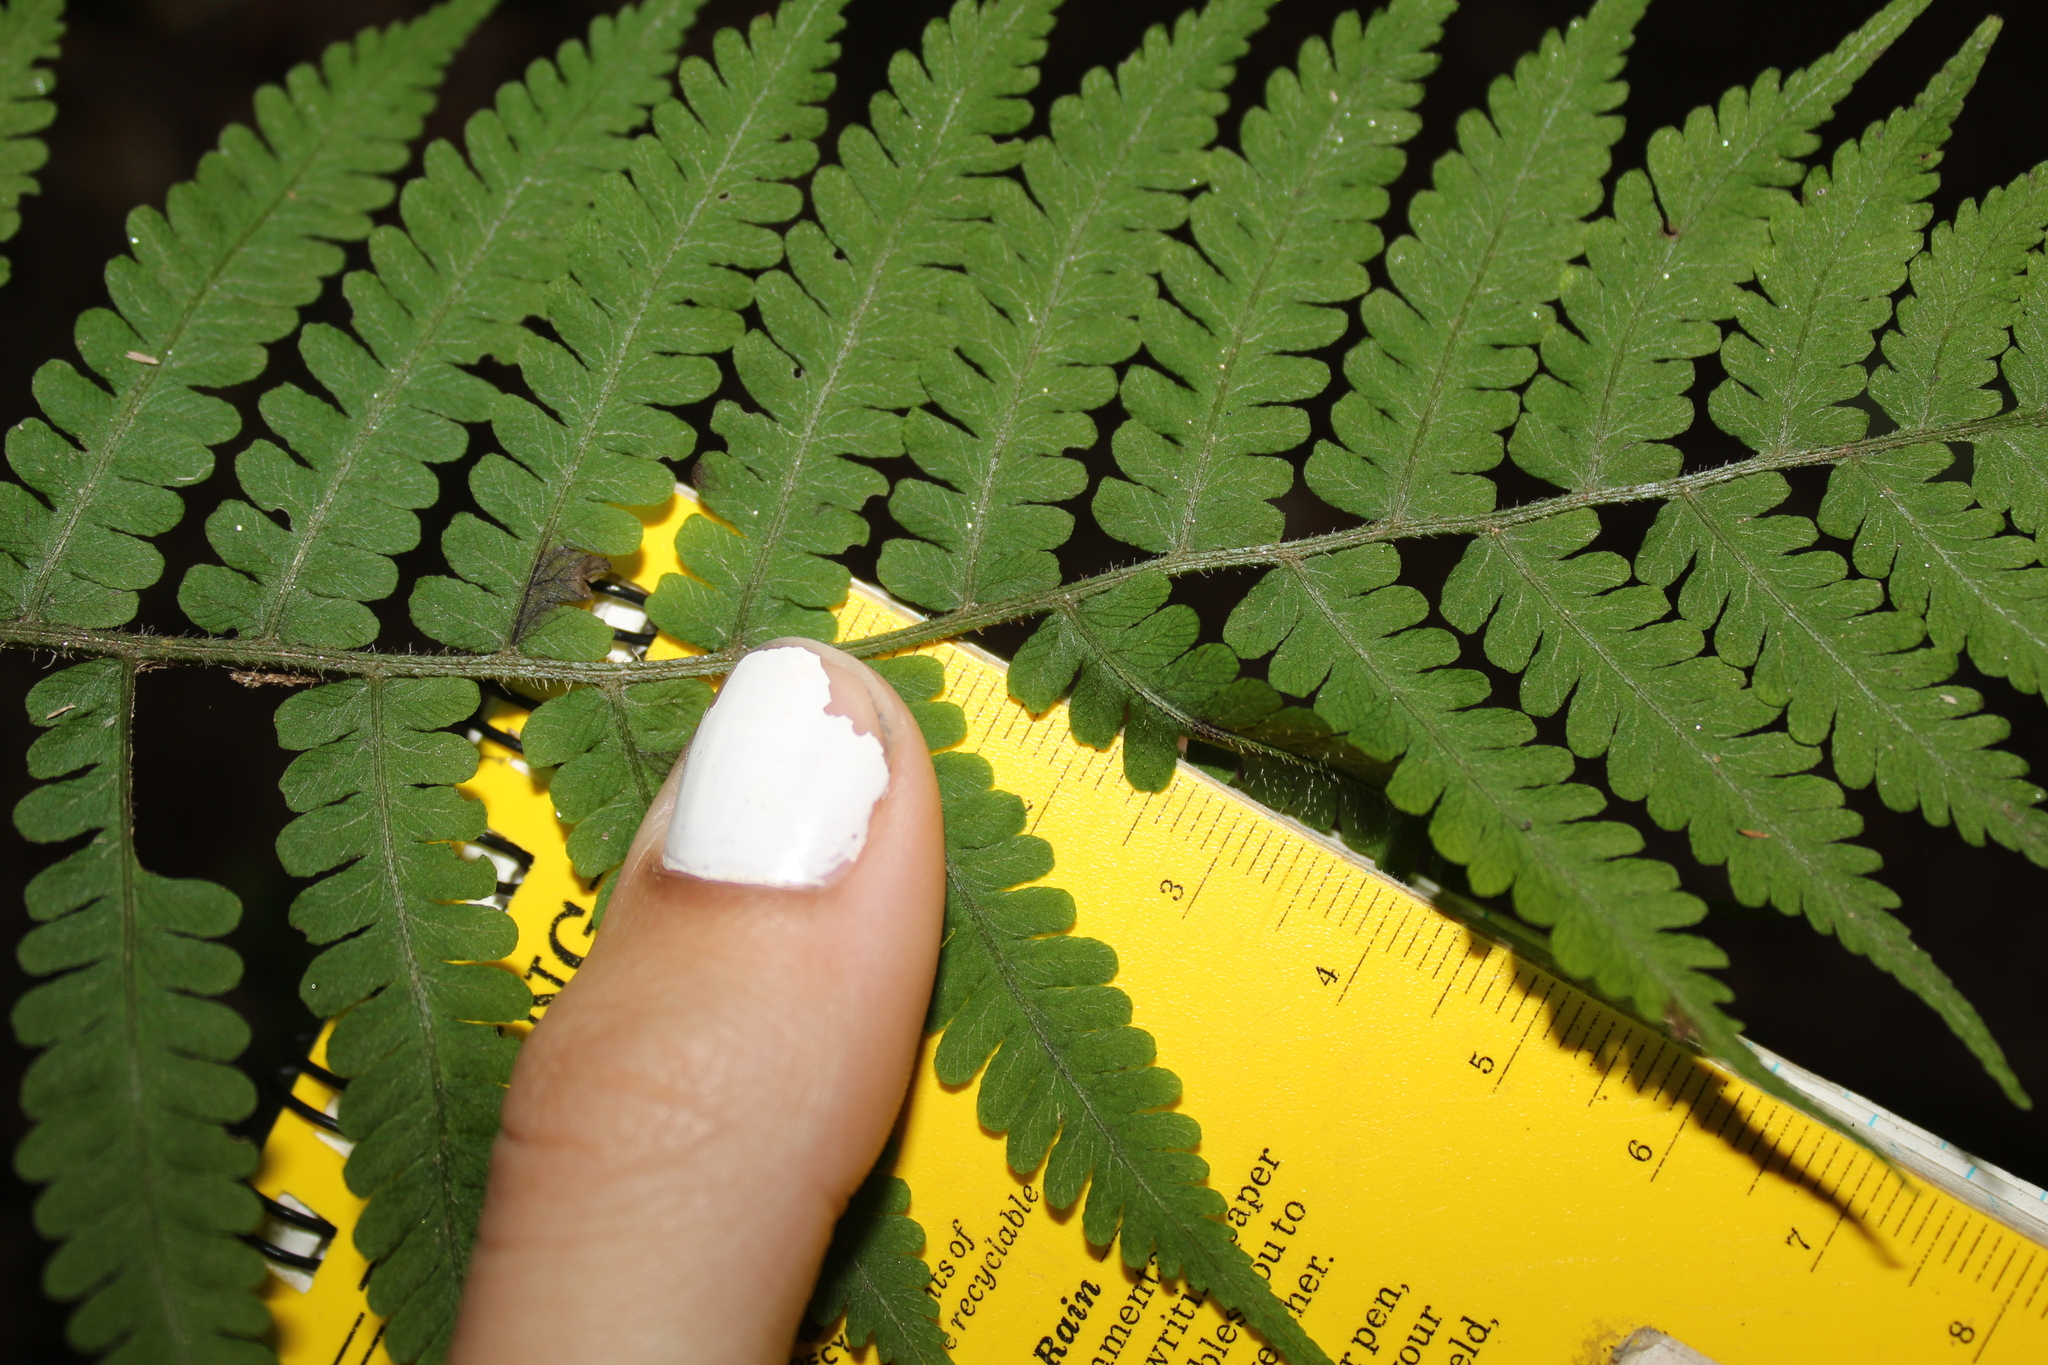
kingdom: Plantae
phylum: Tracheophyta
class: Polypodiopsida
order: Polypodiales
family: Athyriaceae
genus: Deparia
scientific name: Deparia acrostichoides
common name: Silver false spleenwort
